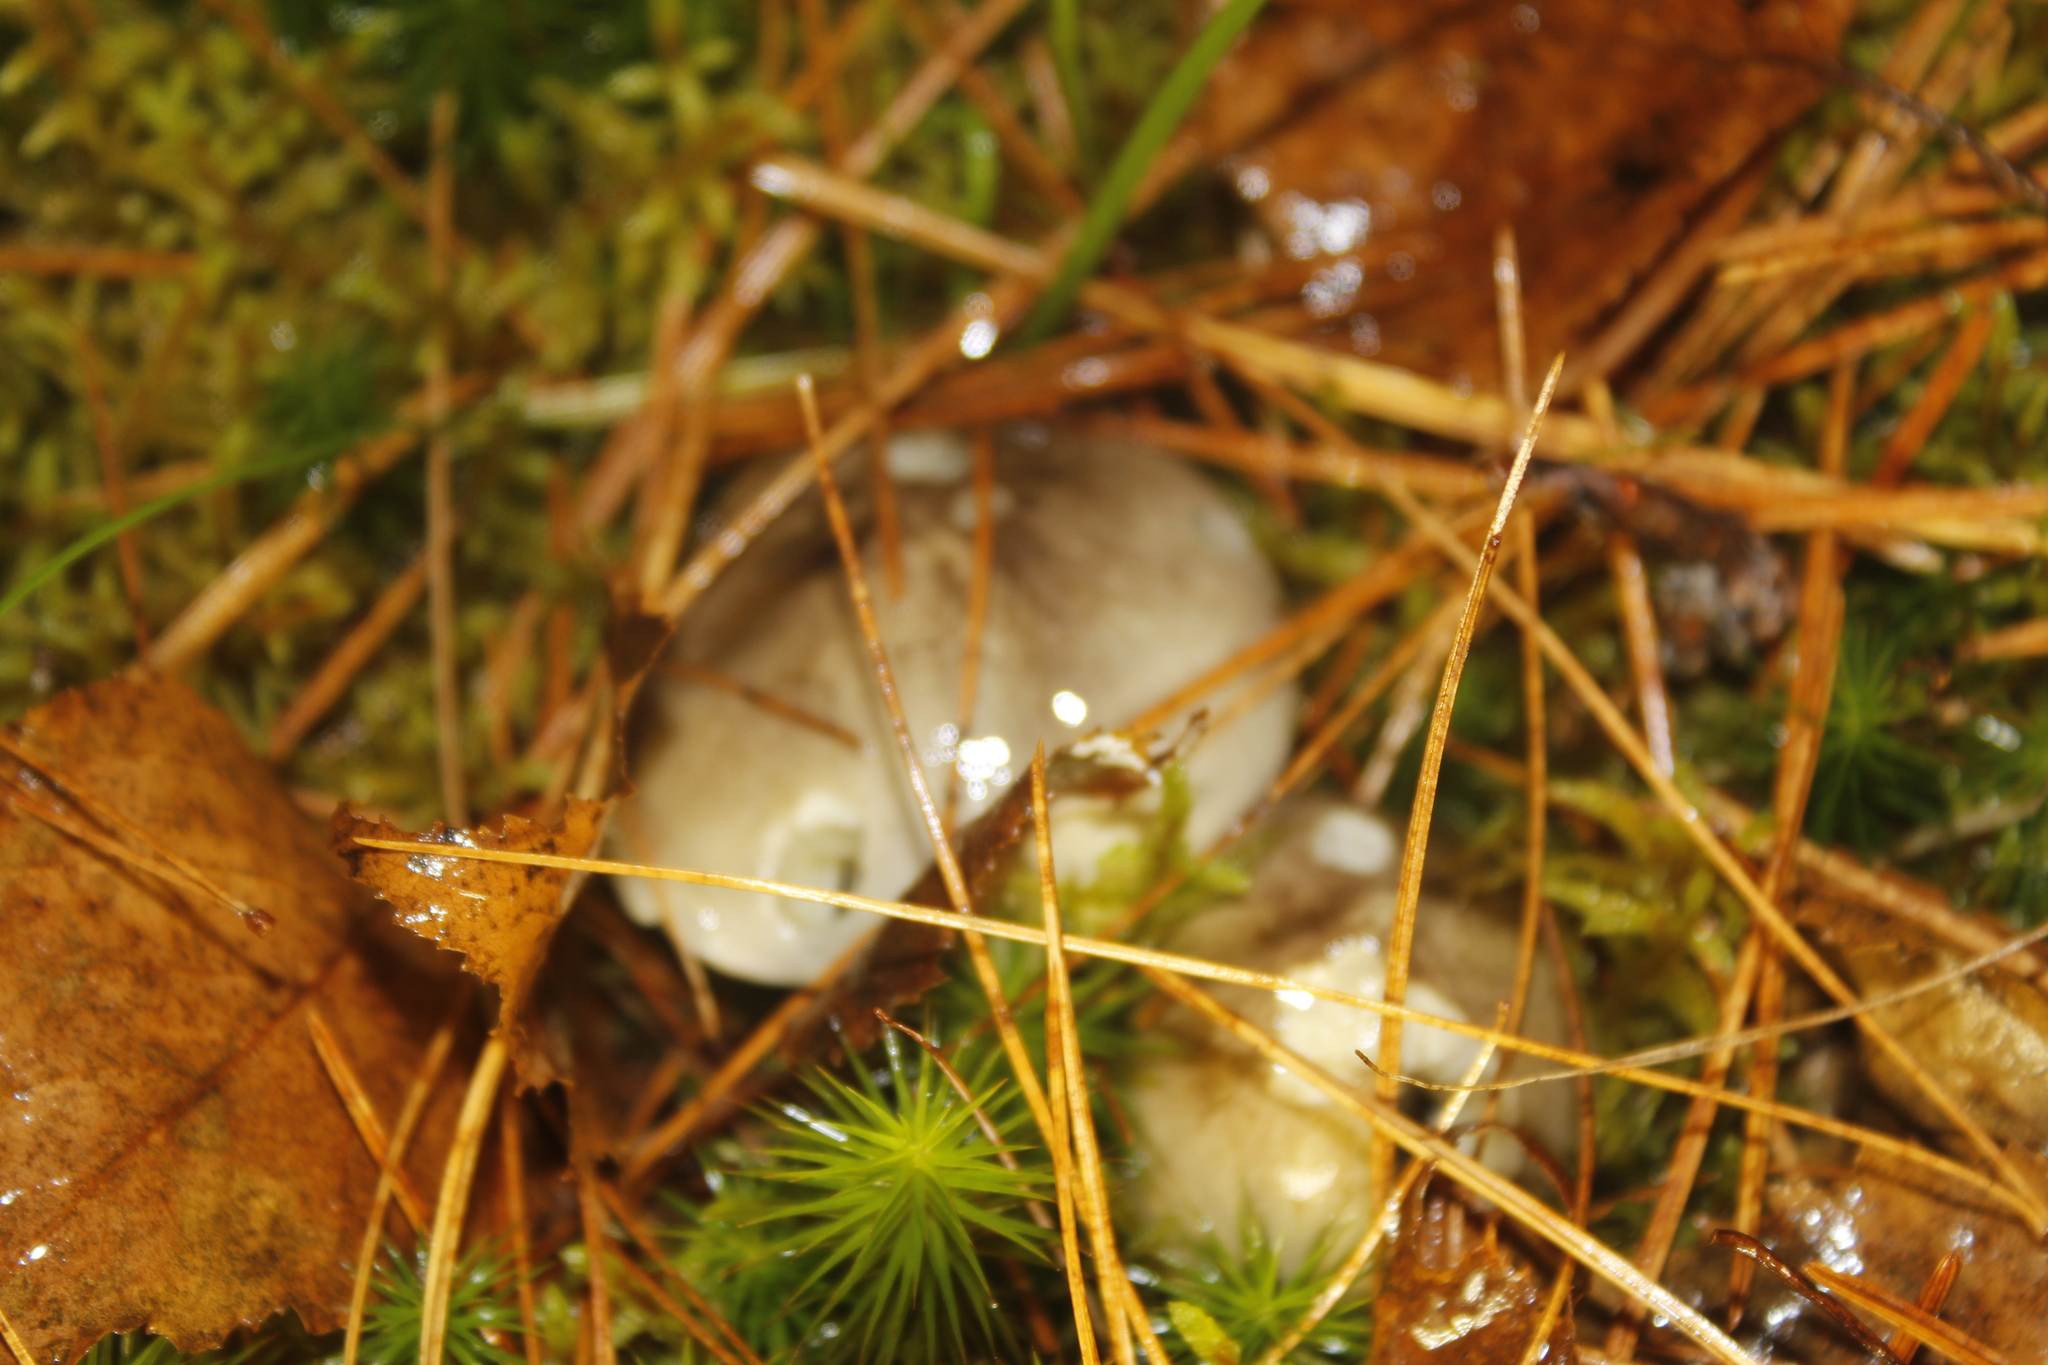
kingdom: Fungi
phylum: Basidiomycota
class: Agaricomycetes
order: Agaricales
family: Tricholomataceae
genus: Tricholoma
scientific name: Tricholoma portentosum
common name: Coalman
